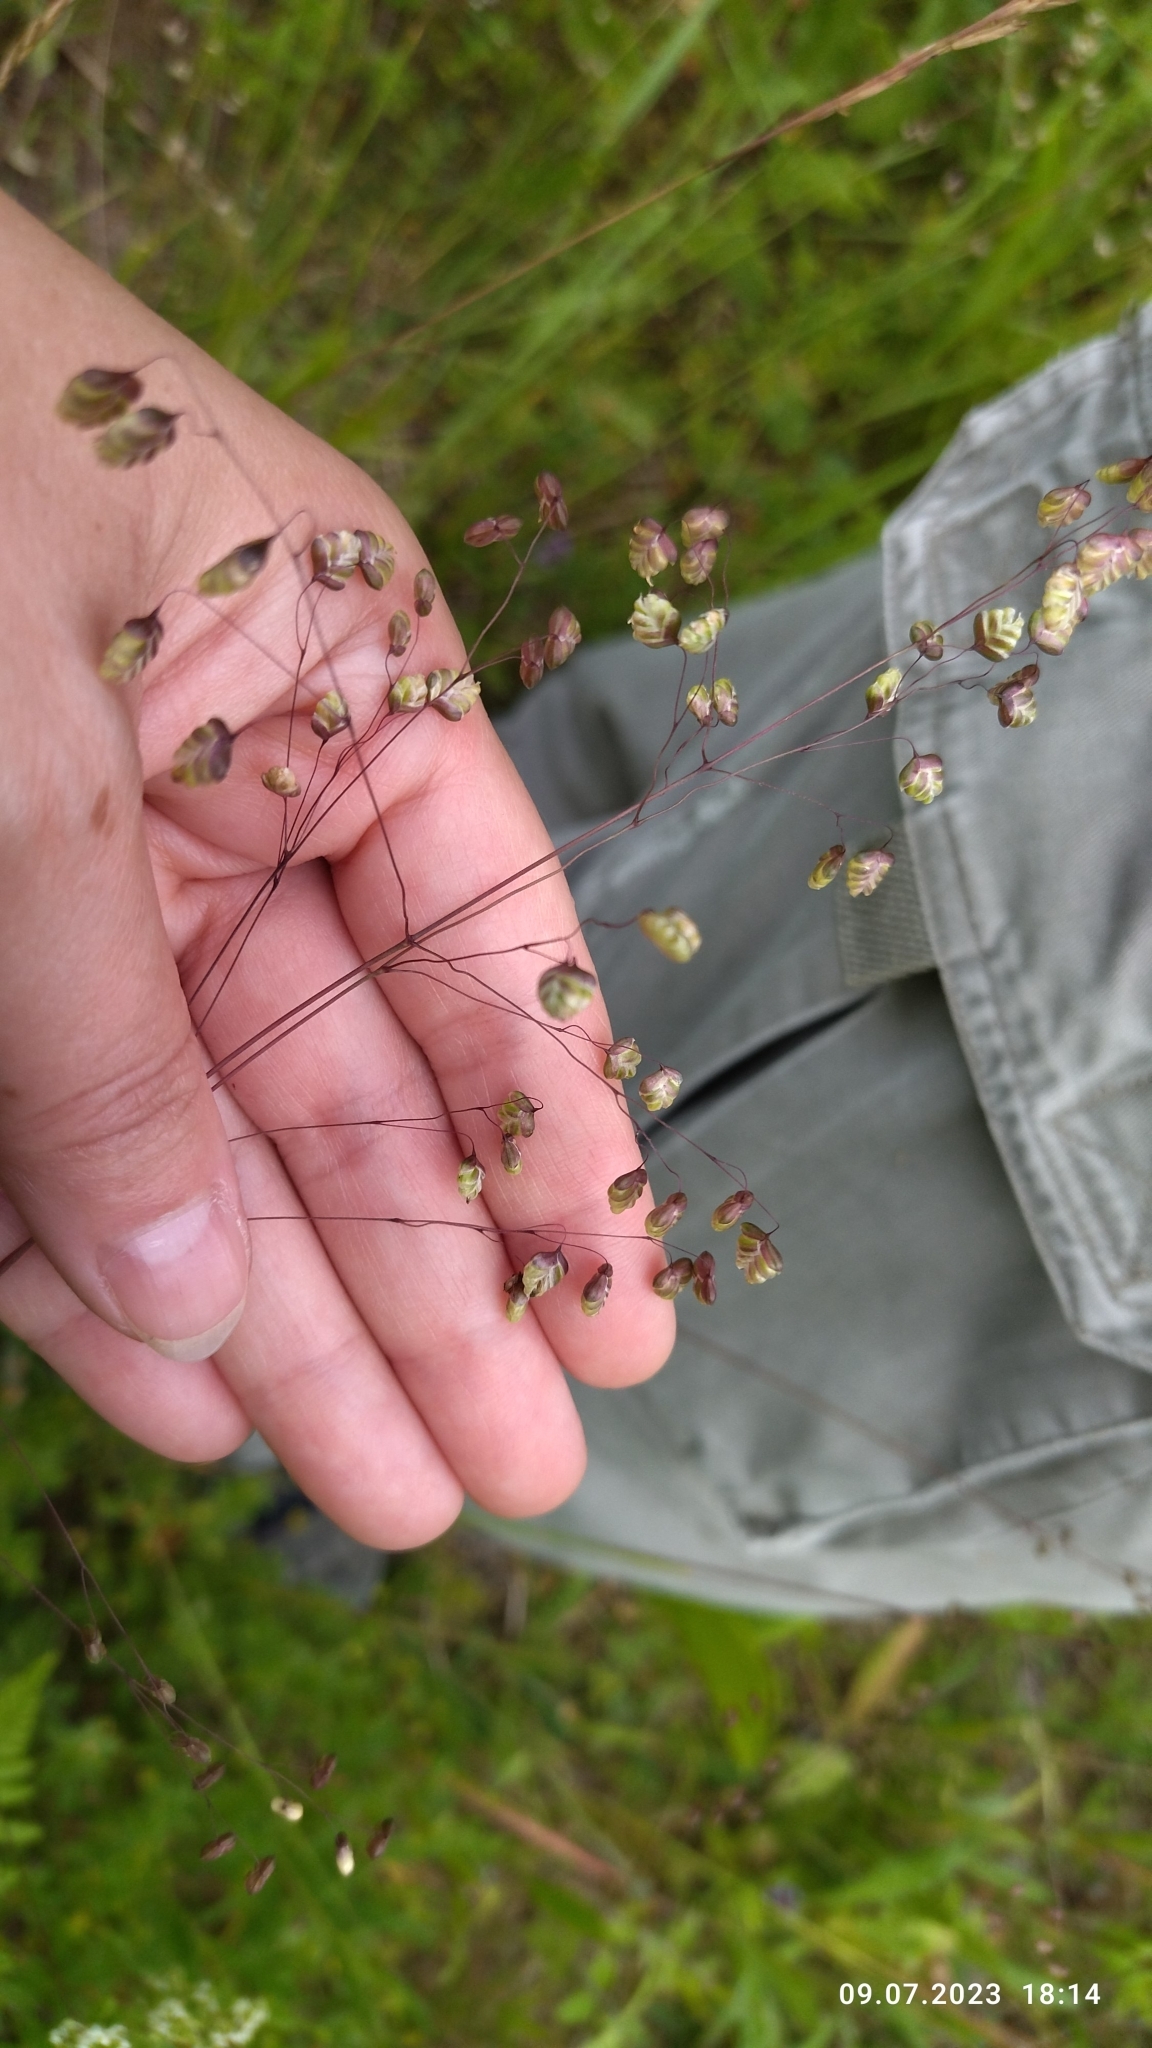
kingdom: Plantae
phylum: Tracheophyta
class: Liliopsida
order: Poales
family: Poaceae
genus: Briza
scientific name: Briza media
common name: Quaking grass
